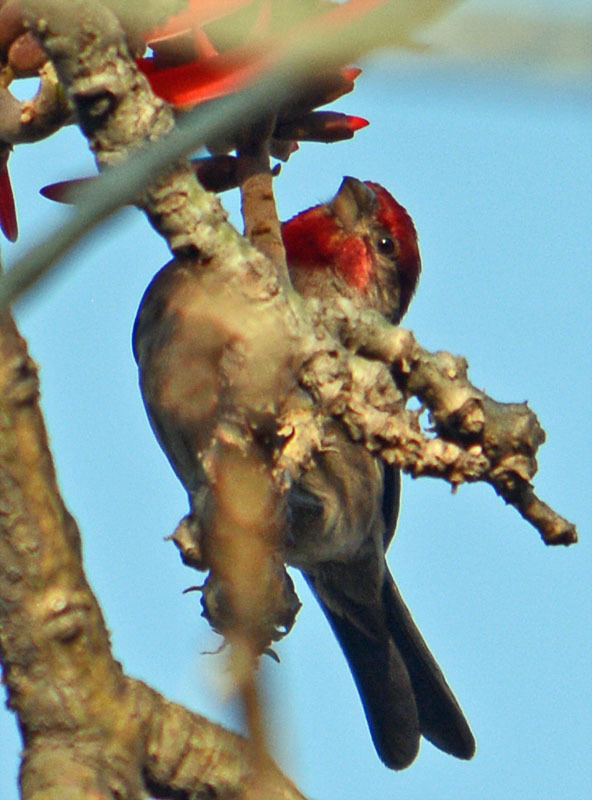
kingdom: Animalia
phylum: Chordata
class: Aves
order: Passeriformes
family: Fringillidae
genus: Haemorhous
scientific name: Haemorhous mexicanus
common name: House finch
